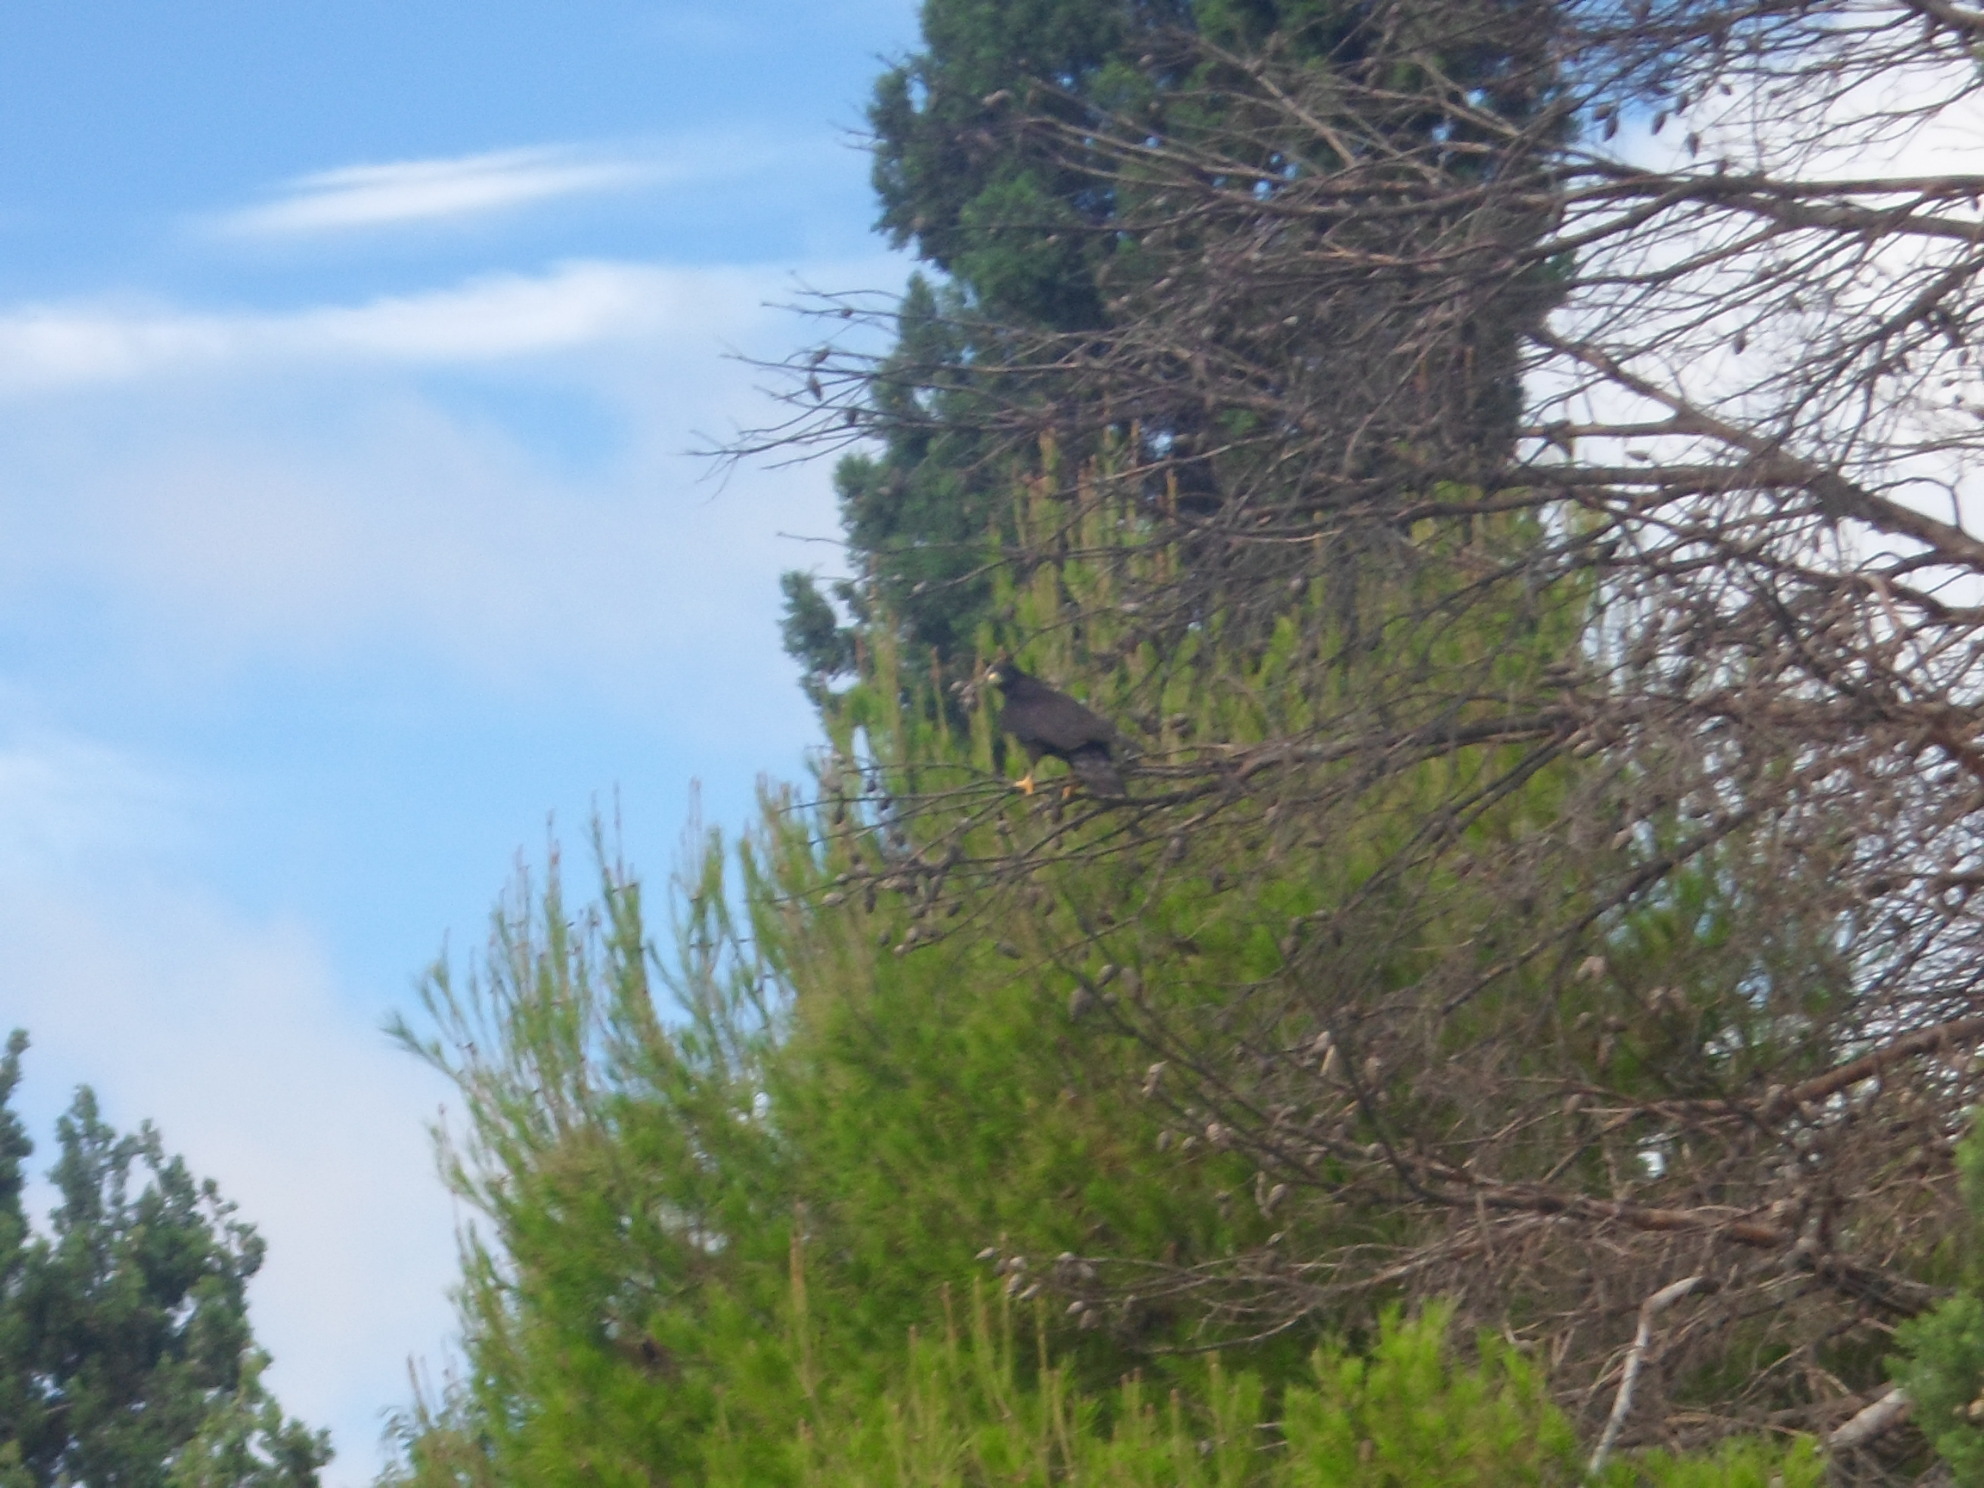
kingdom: Animalia
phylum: Chordata
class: Aves
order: Accipitriformes
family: Accipitridae
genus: Buteogallus
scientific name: Buteogallus anthracinus
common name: Common black hawk
